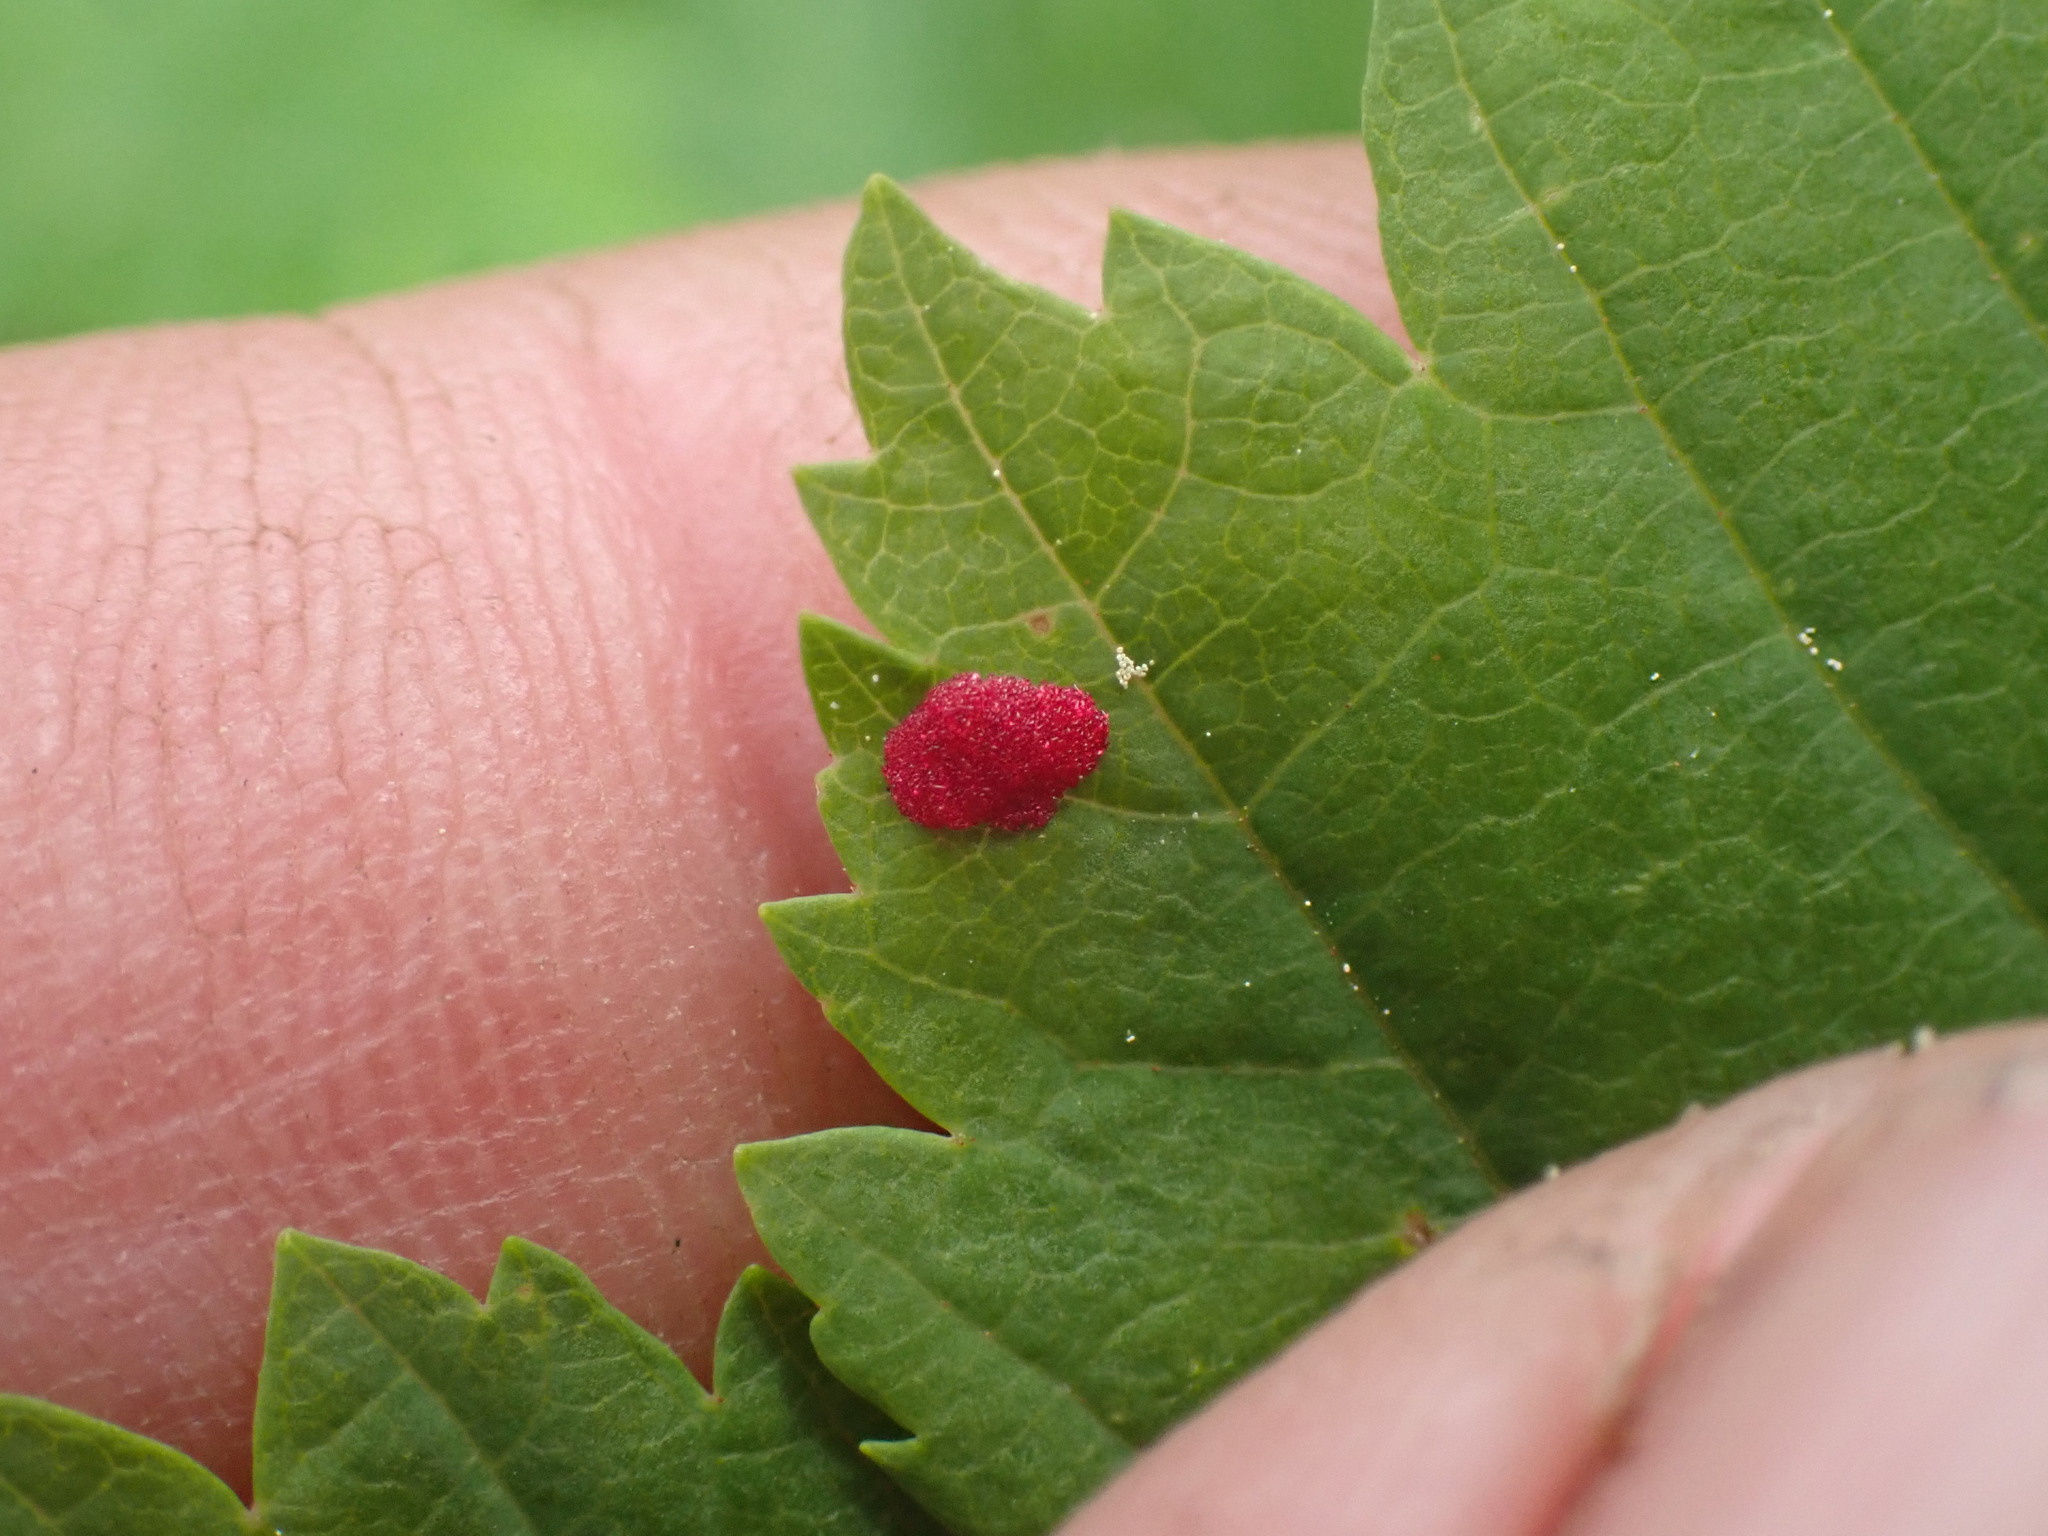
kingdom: Animalia
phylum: Arthropoda
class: Arachnida
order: Trombidiformes
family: Eriophyidae
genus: Aceria
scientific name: Aceria
